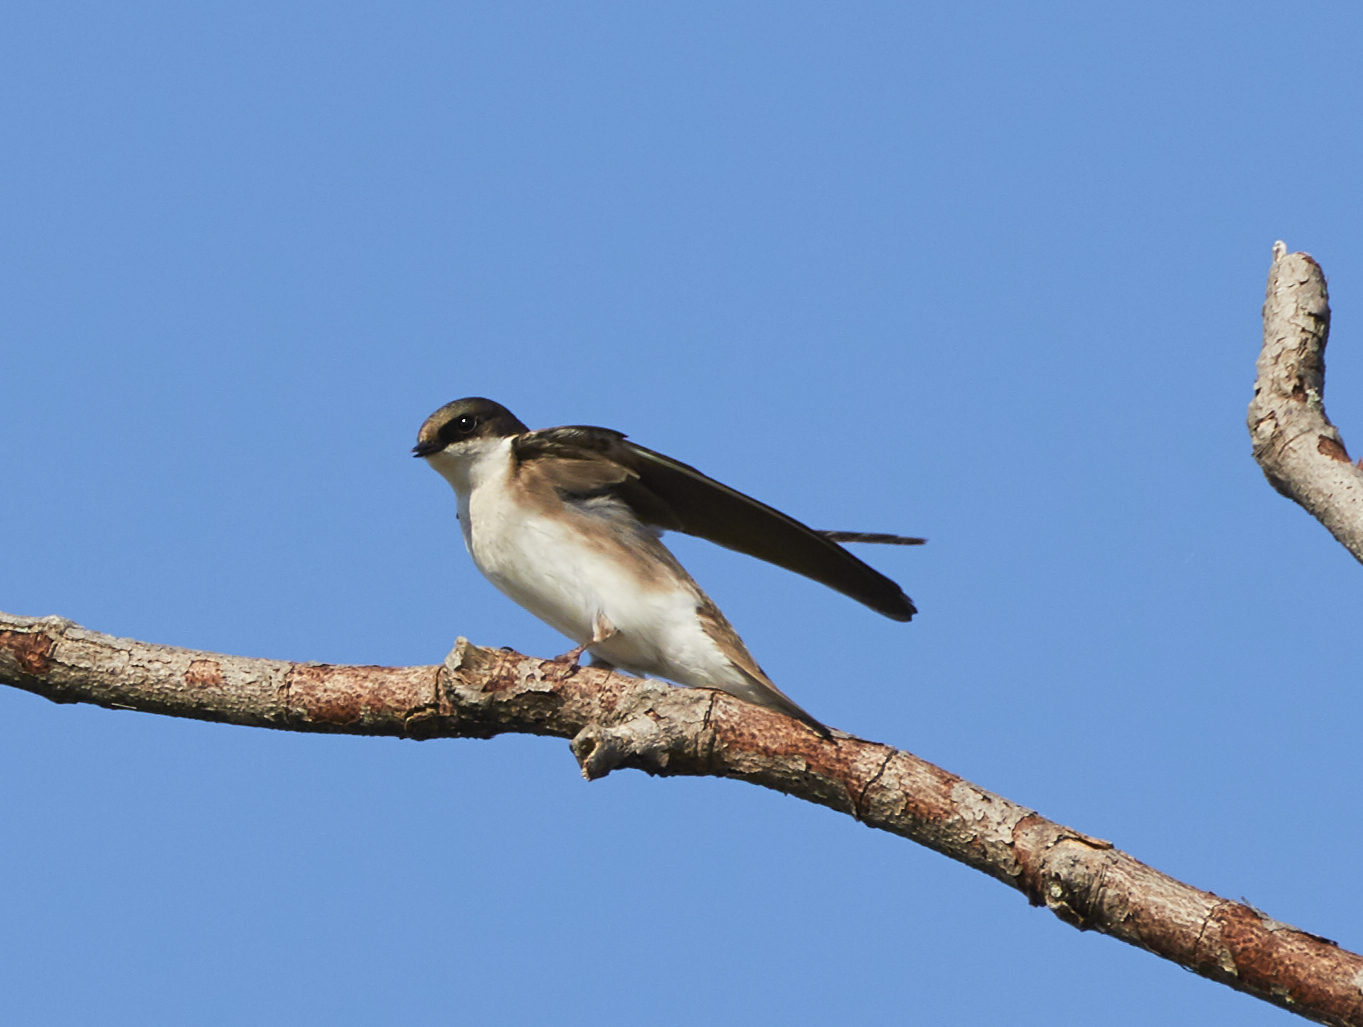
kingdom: Animalia
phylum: Chordata
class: Aves
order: Passeriformes
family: Hirundinidae
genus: Tachycineta
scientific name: Tachycineta bicolor
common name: Tree swallow
